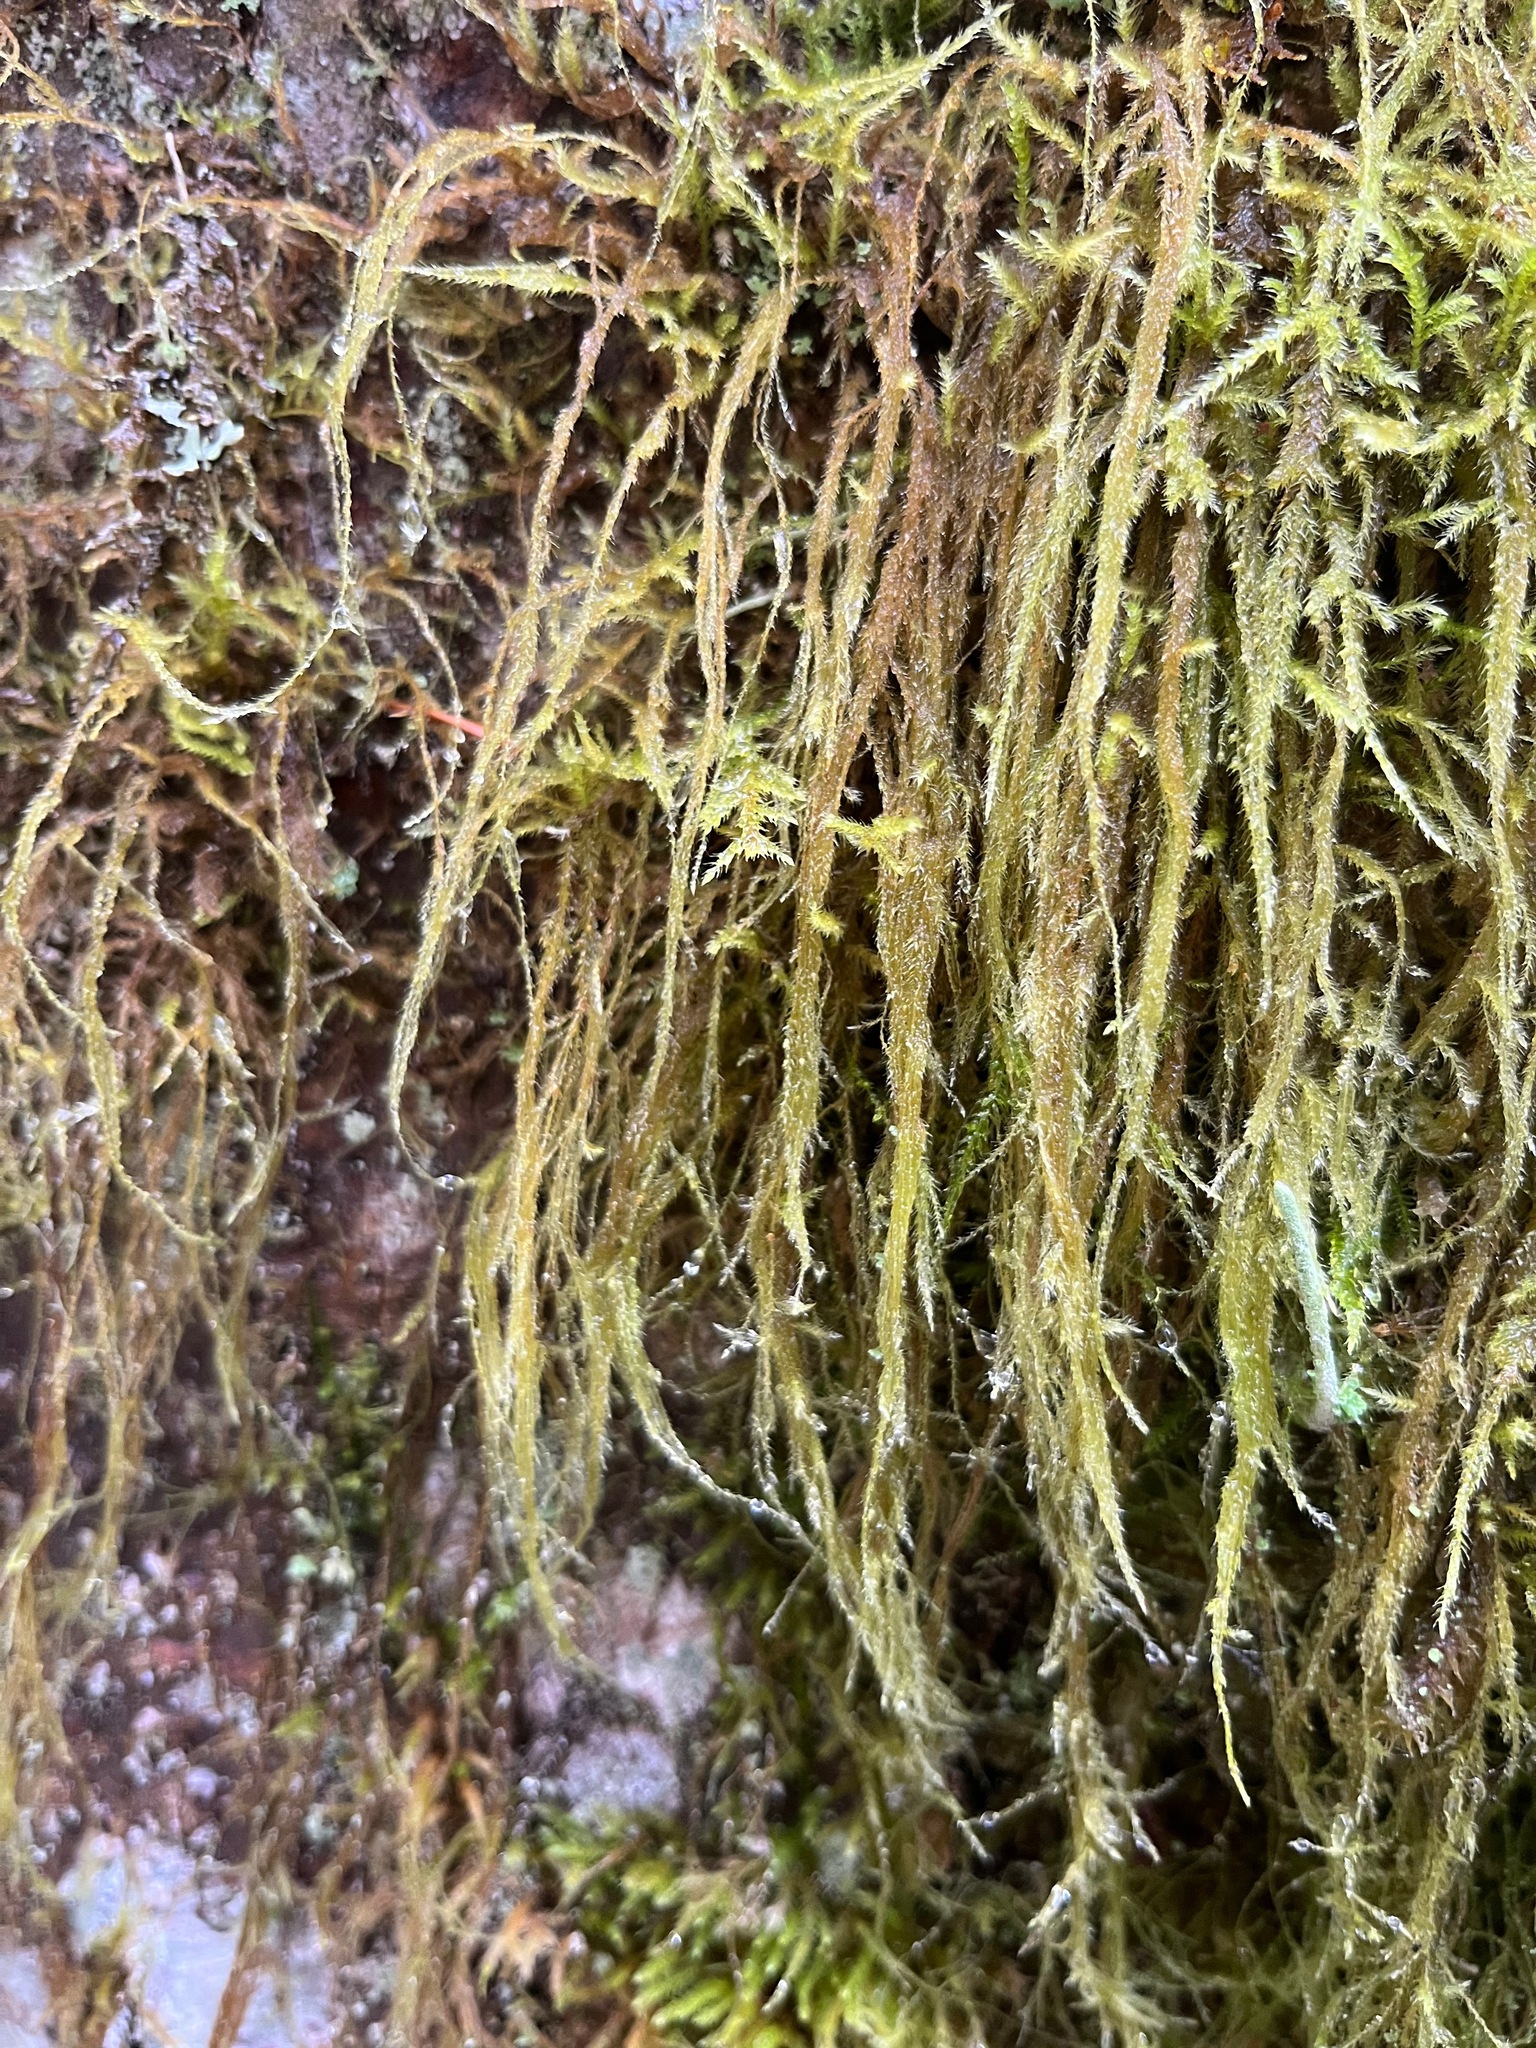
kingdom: Plantae
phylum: Bryophyta
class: Bryopsida
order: Hypnales
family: Lembophyllaceae
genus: Pseudisothecium
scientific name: Pseudisothecium stoloniferum
